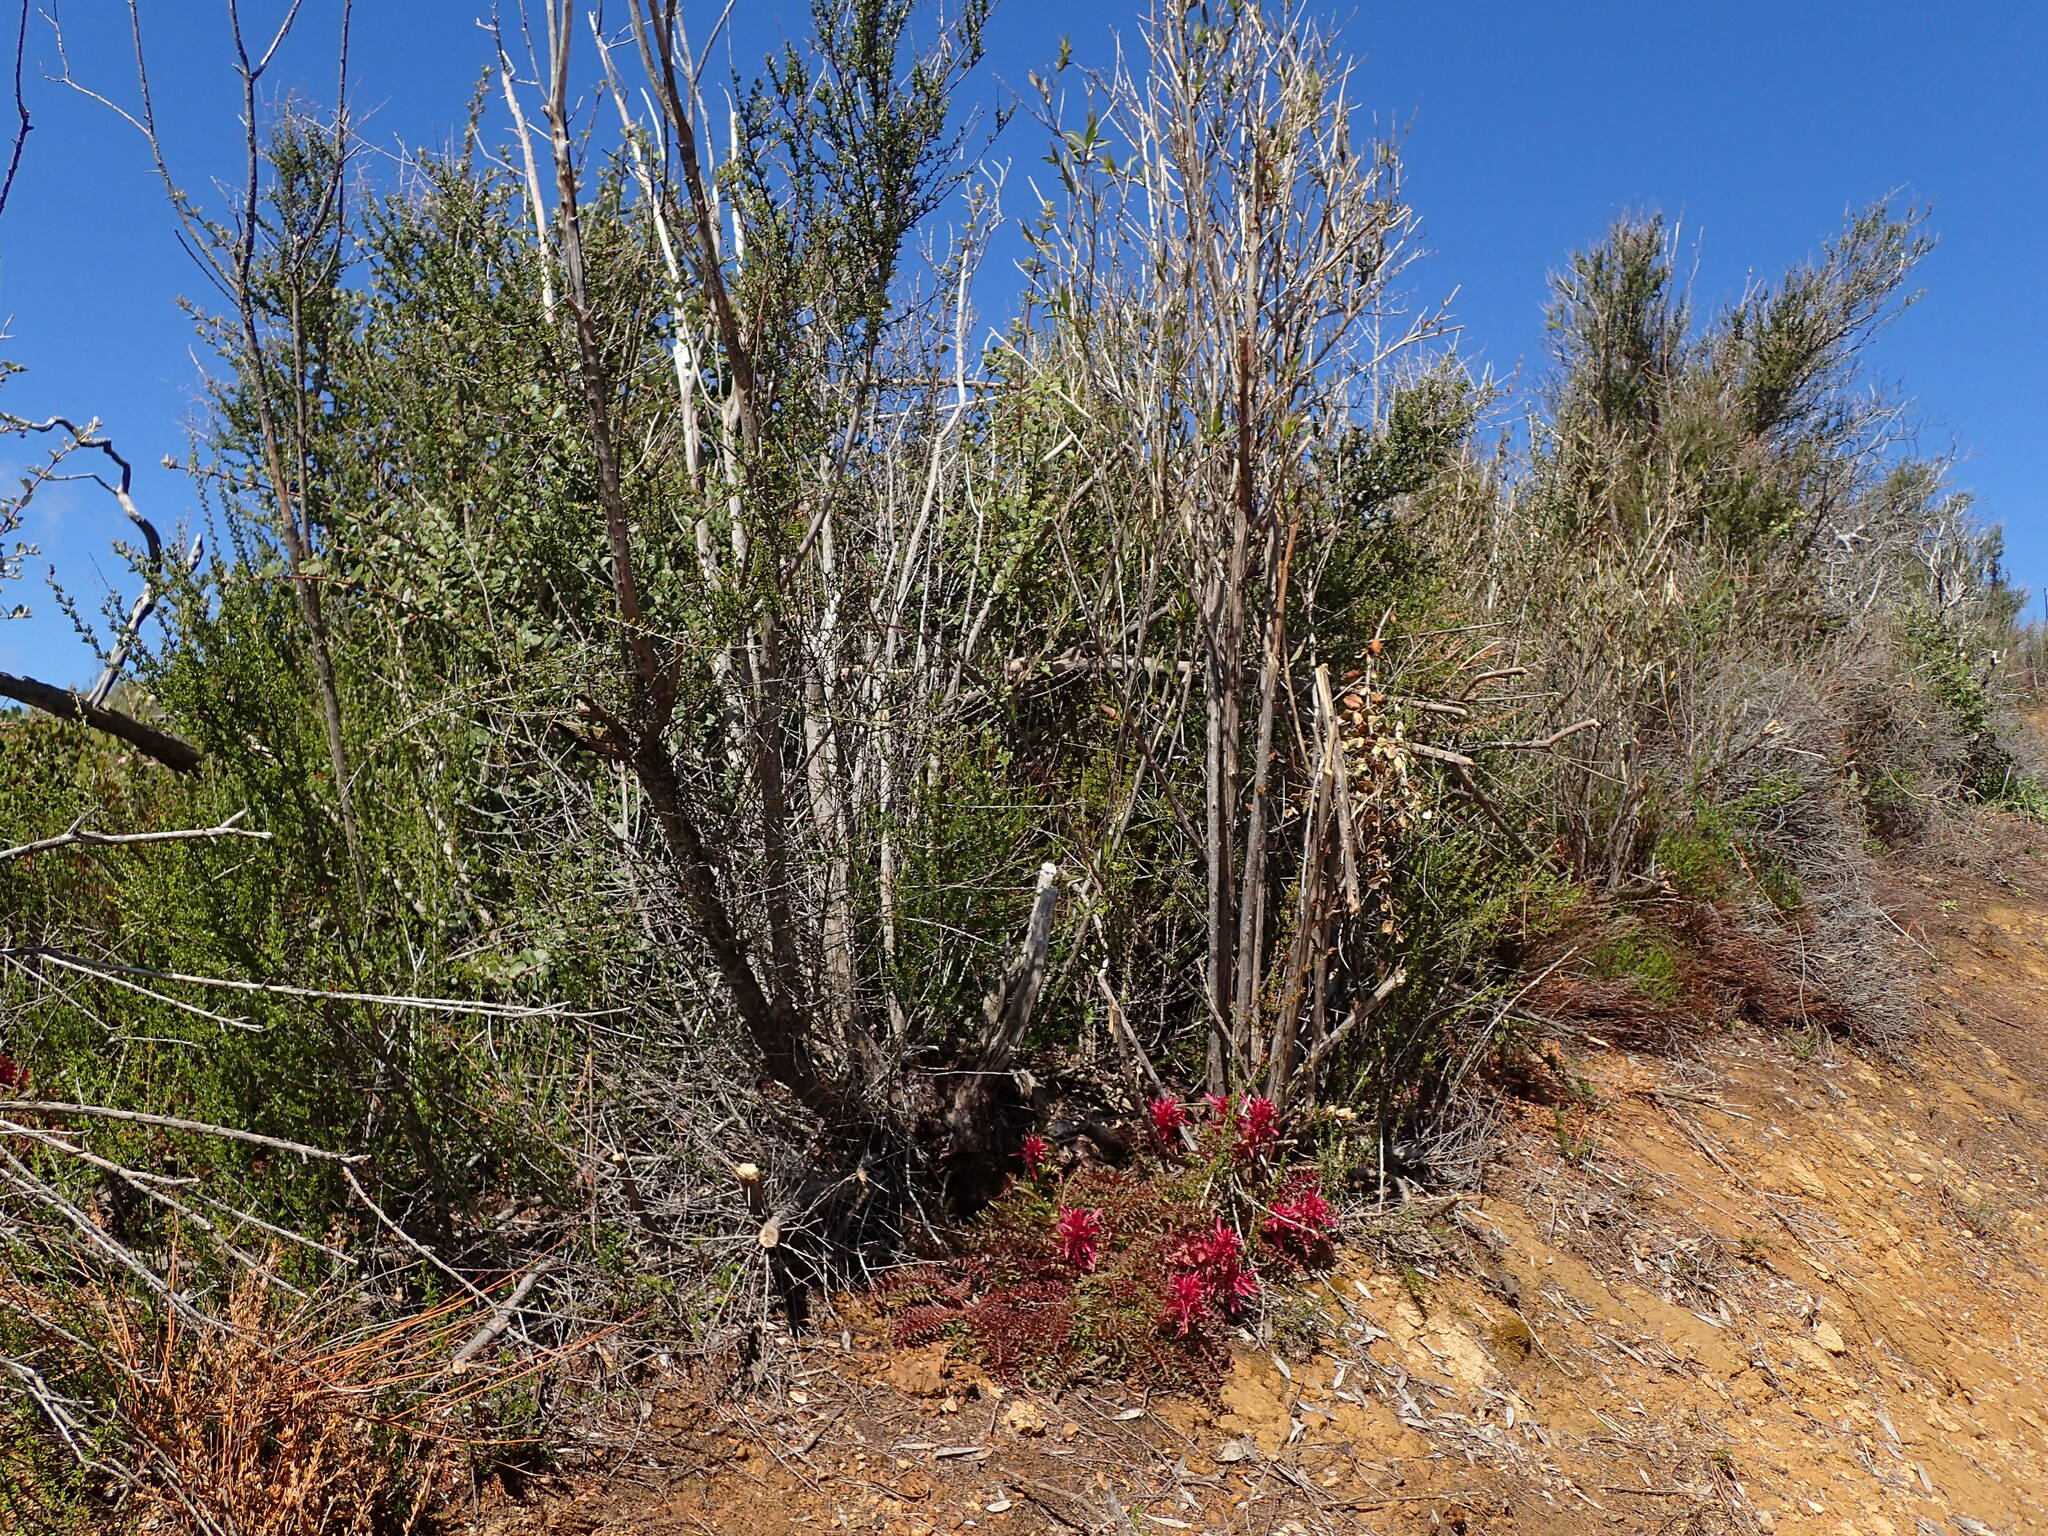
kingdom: Plantae
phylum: Tracheophyta
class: Magnoliopsida
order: Lamiales
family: Orobanchaceae
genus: Pedicularis
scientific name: Pedicularis densiflora
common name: Indian warrior
